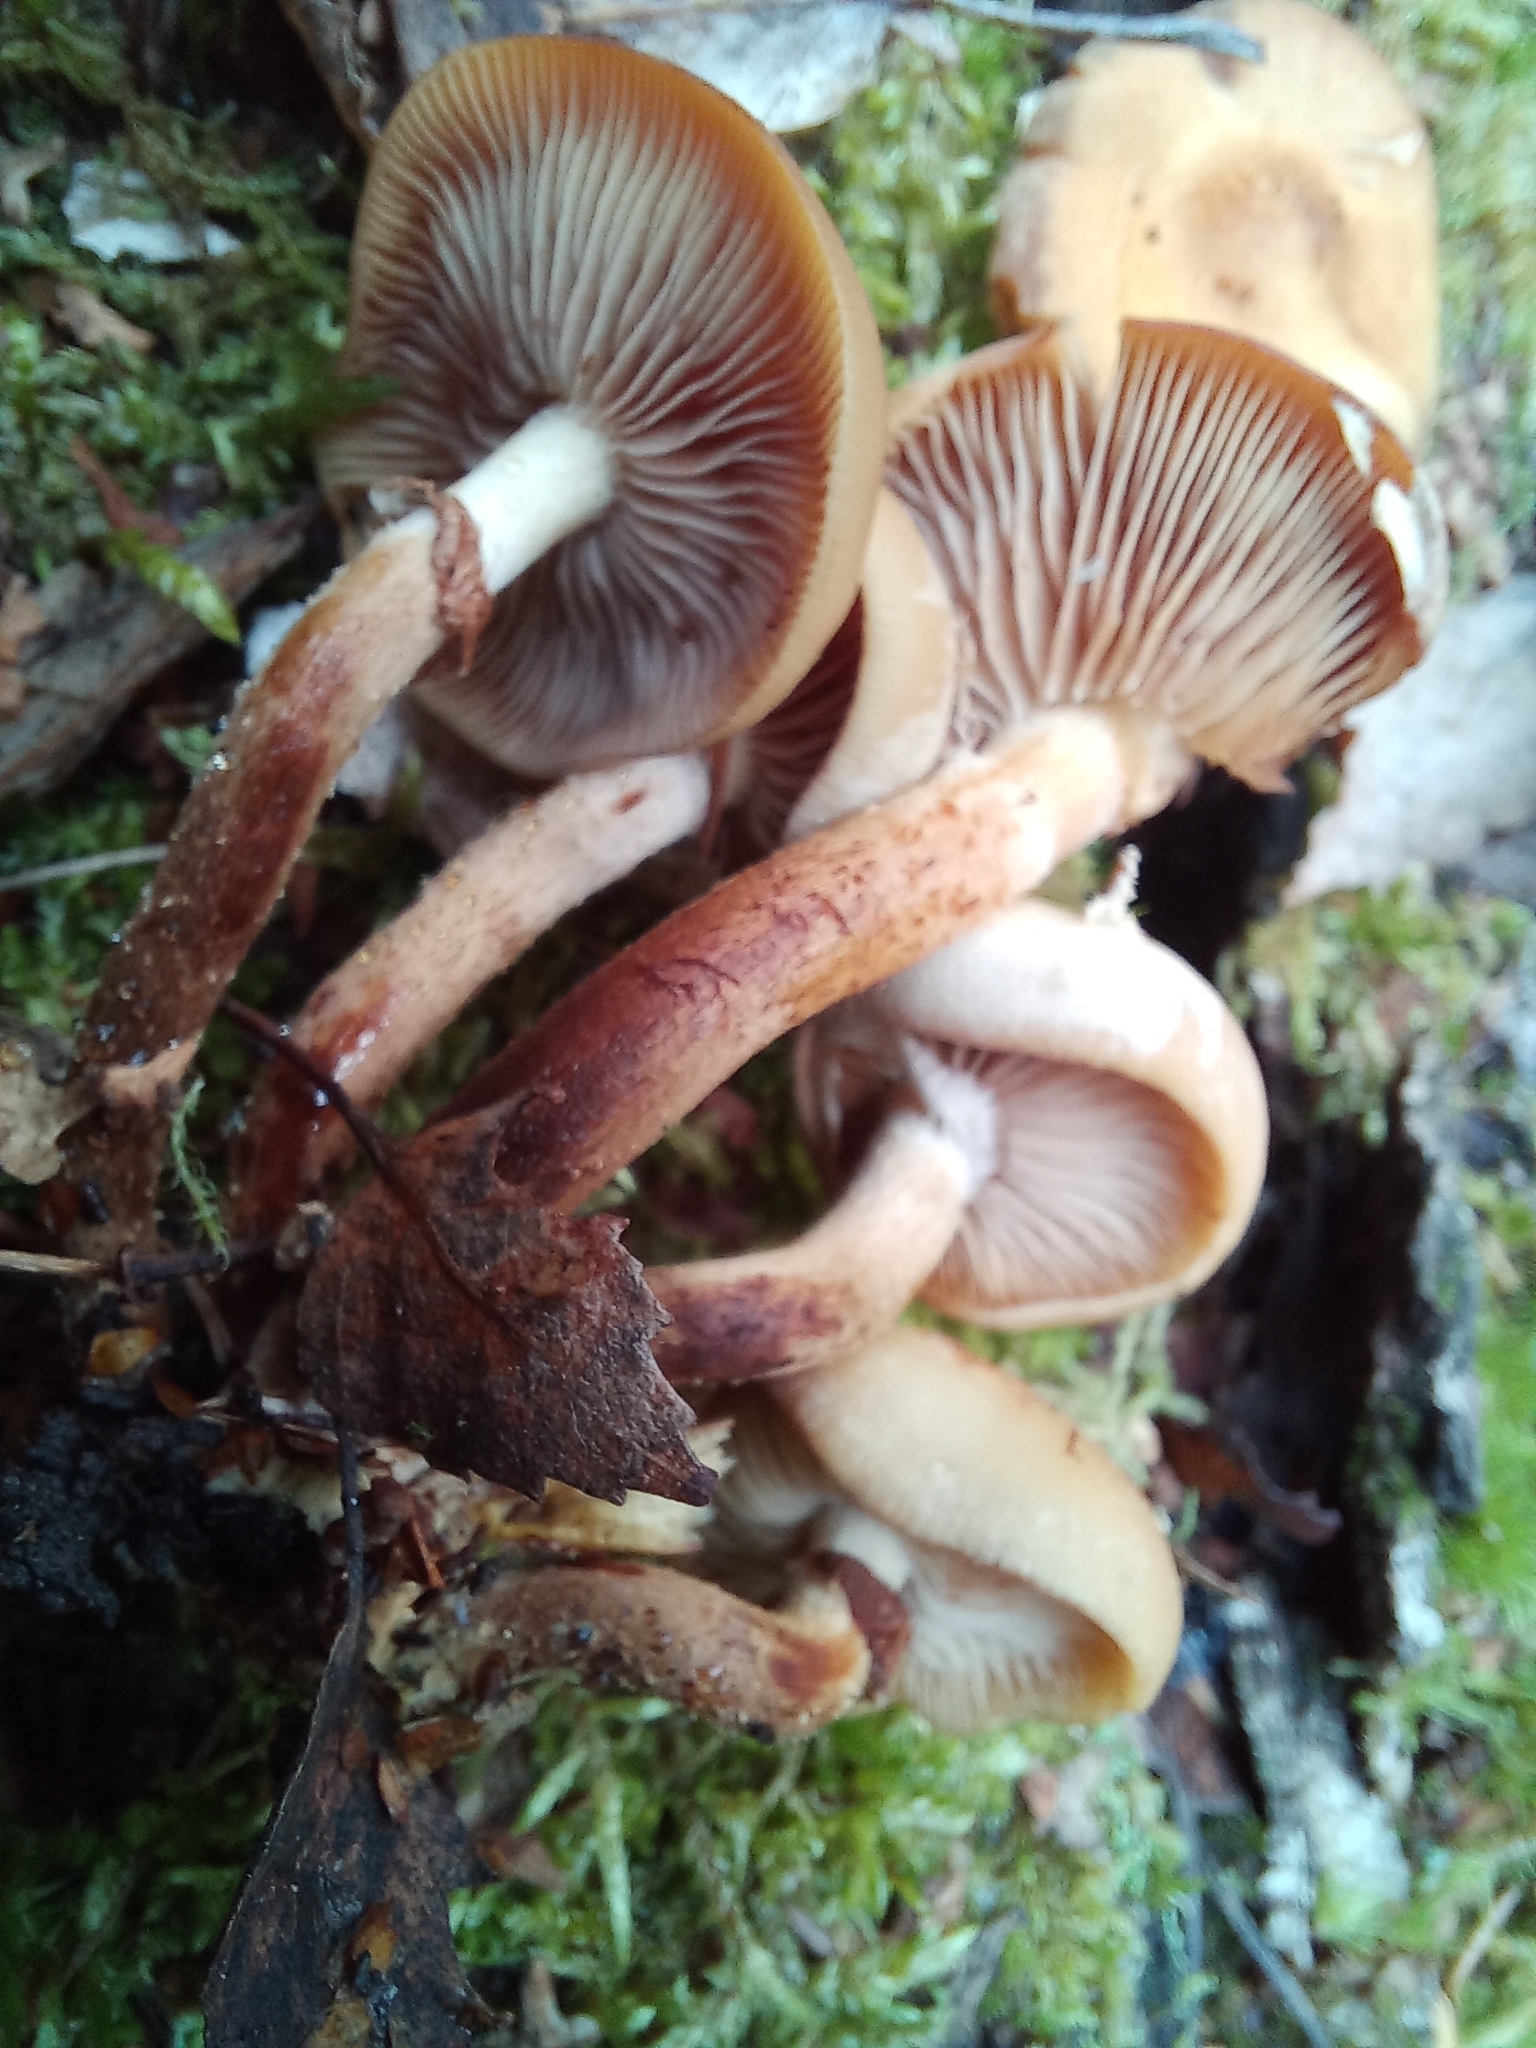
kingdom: Fungi
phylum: Basidiomycota
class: Agaricomycetes
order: Agaricales
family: Strophariaceae
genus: Kuehneromyces
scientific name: Kuehneromyces mutabilis
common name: Sheathed woodtuft
